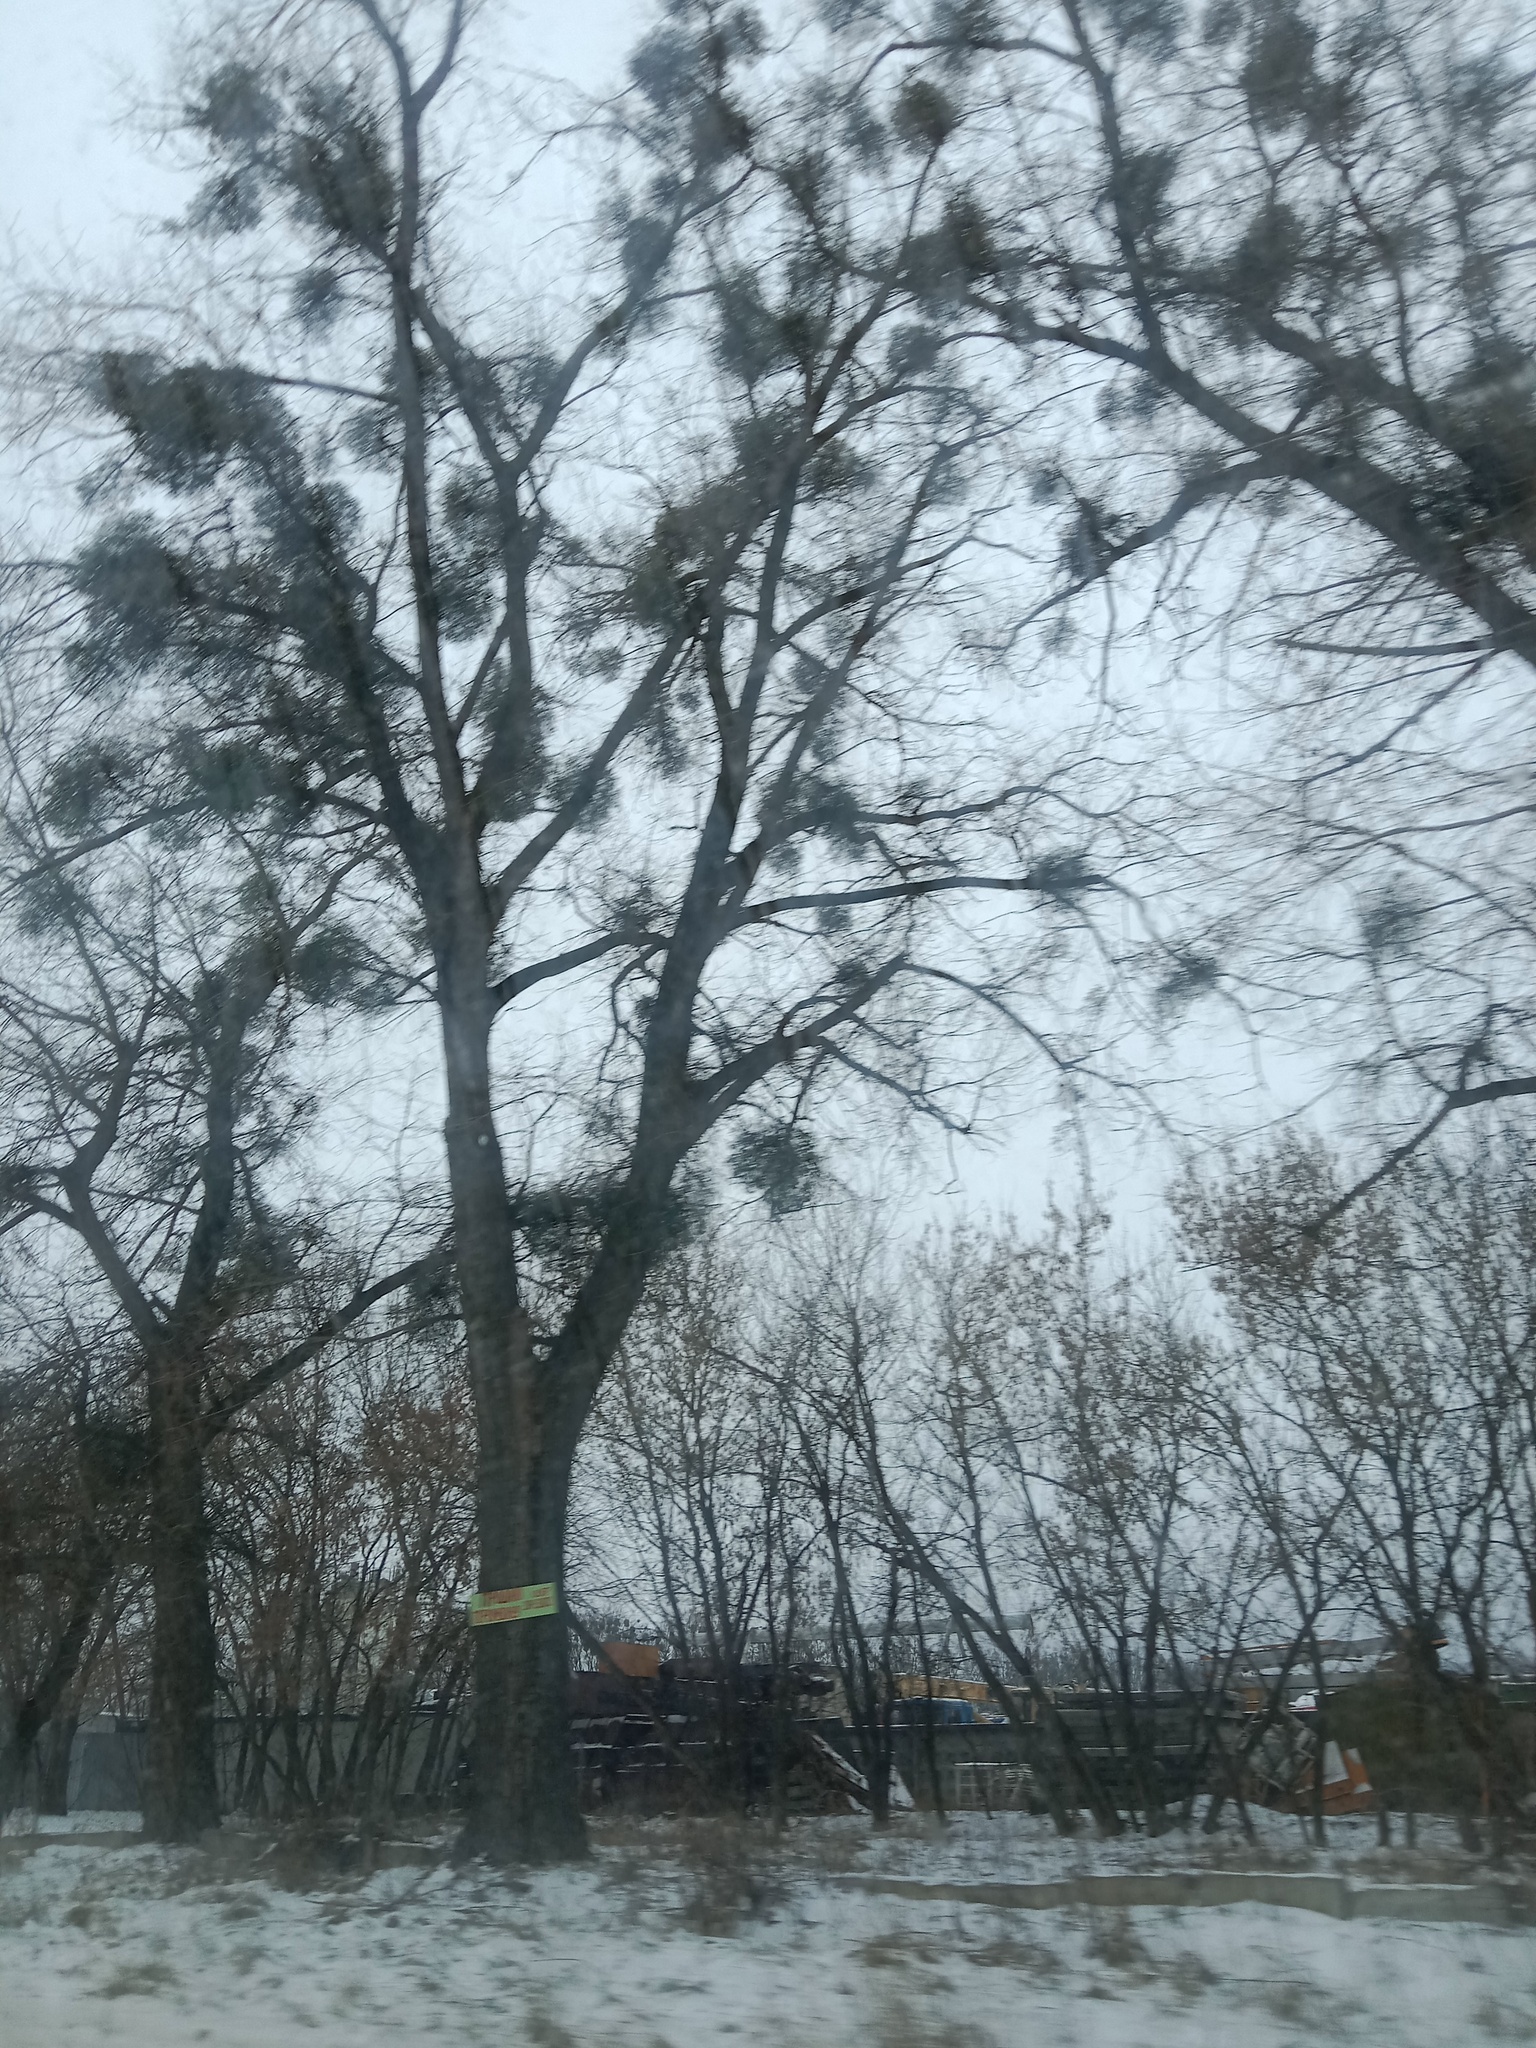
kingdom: Plantae
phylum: Tracheophyta
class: Magnoliopsida
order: Santalales
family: Viscaceae
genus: Viscum
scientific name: Viscum album
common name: Mistletoe
